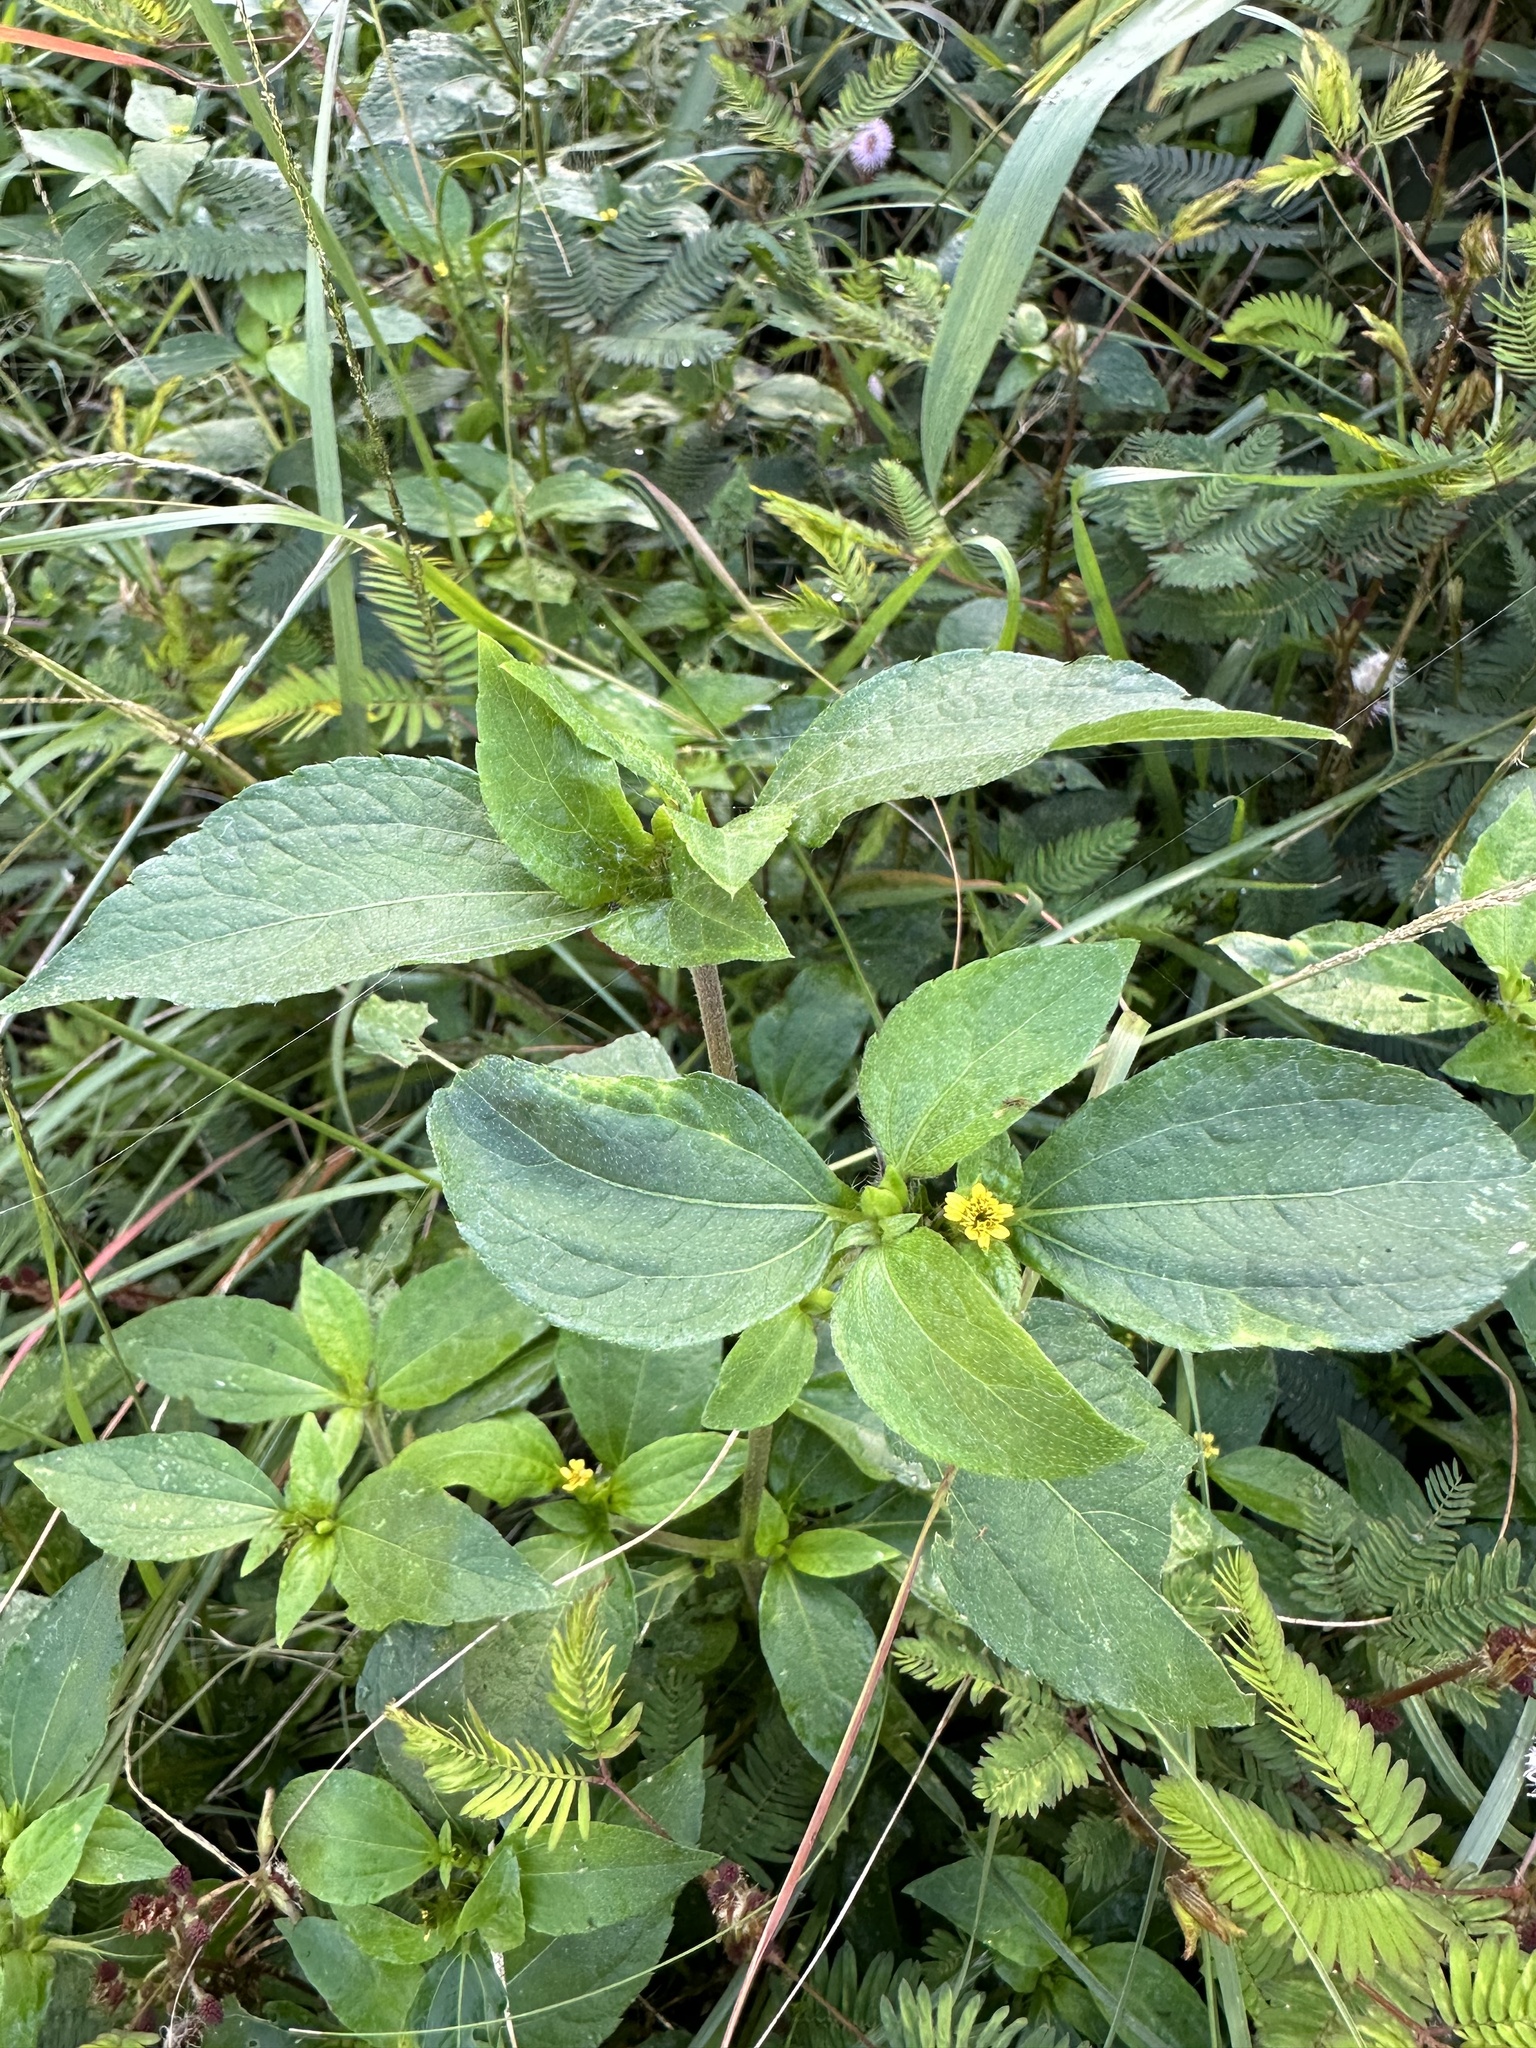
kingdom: Plantae
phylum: Tracheophyta
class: Magnoliopsida
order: Asterales
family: Asteraceae
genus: Synedrella
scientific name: Synedrella nodiflora
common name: Nodeweed
